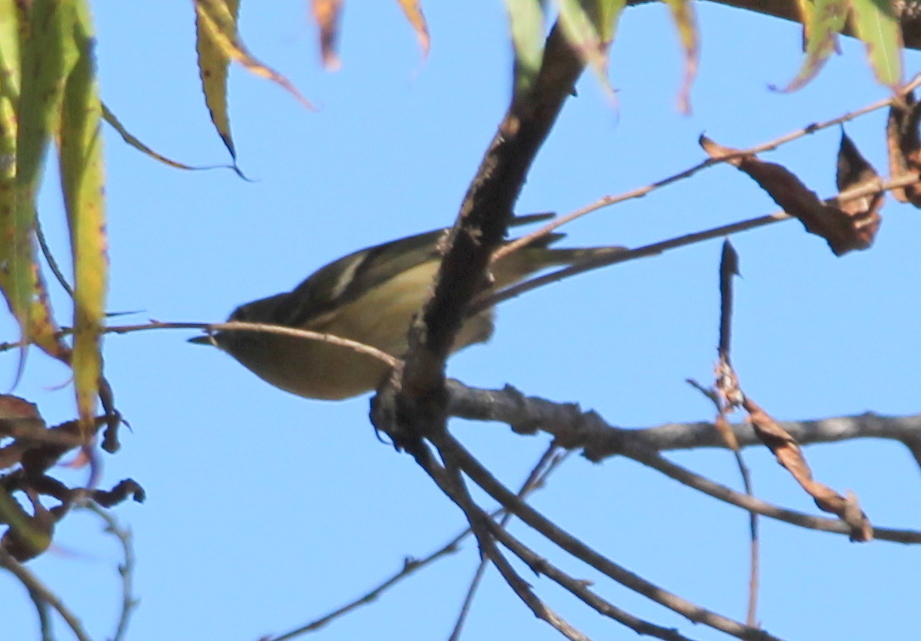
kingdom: Animalia
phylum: Chordata
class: Aves
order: Passeriformes
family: Regulidae
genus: Regulus
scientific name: Regulus calendula
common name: Ruby-crowned kinglet
